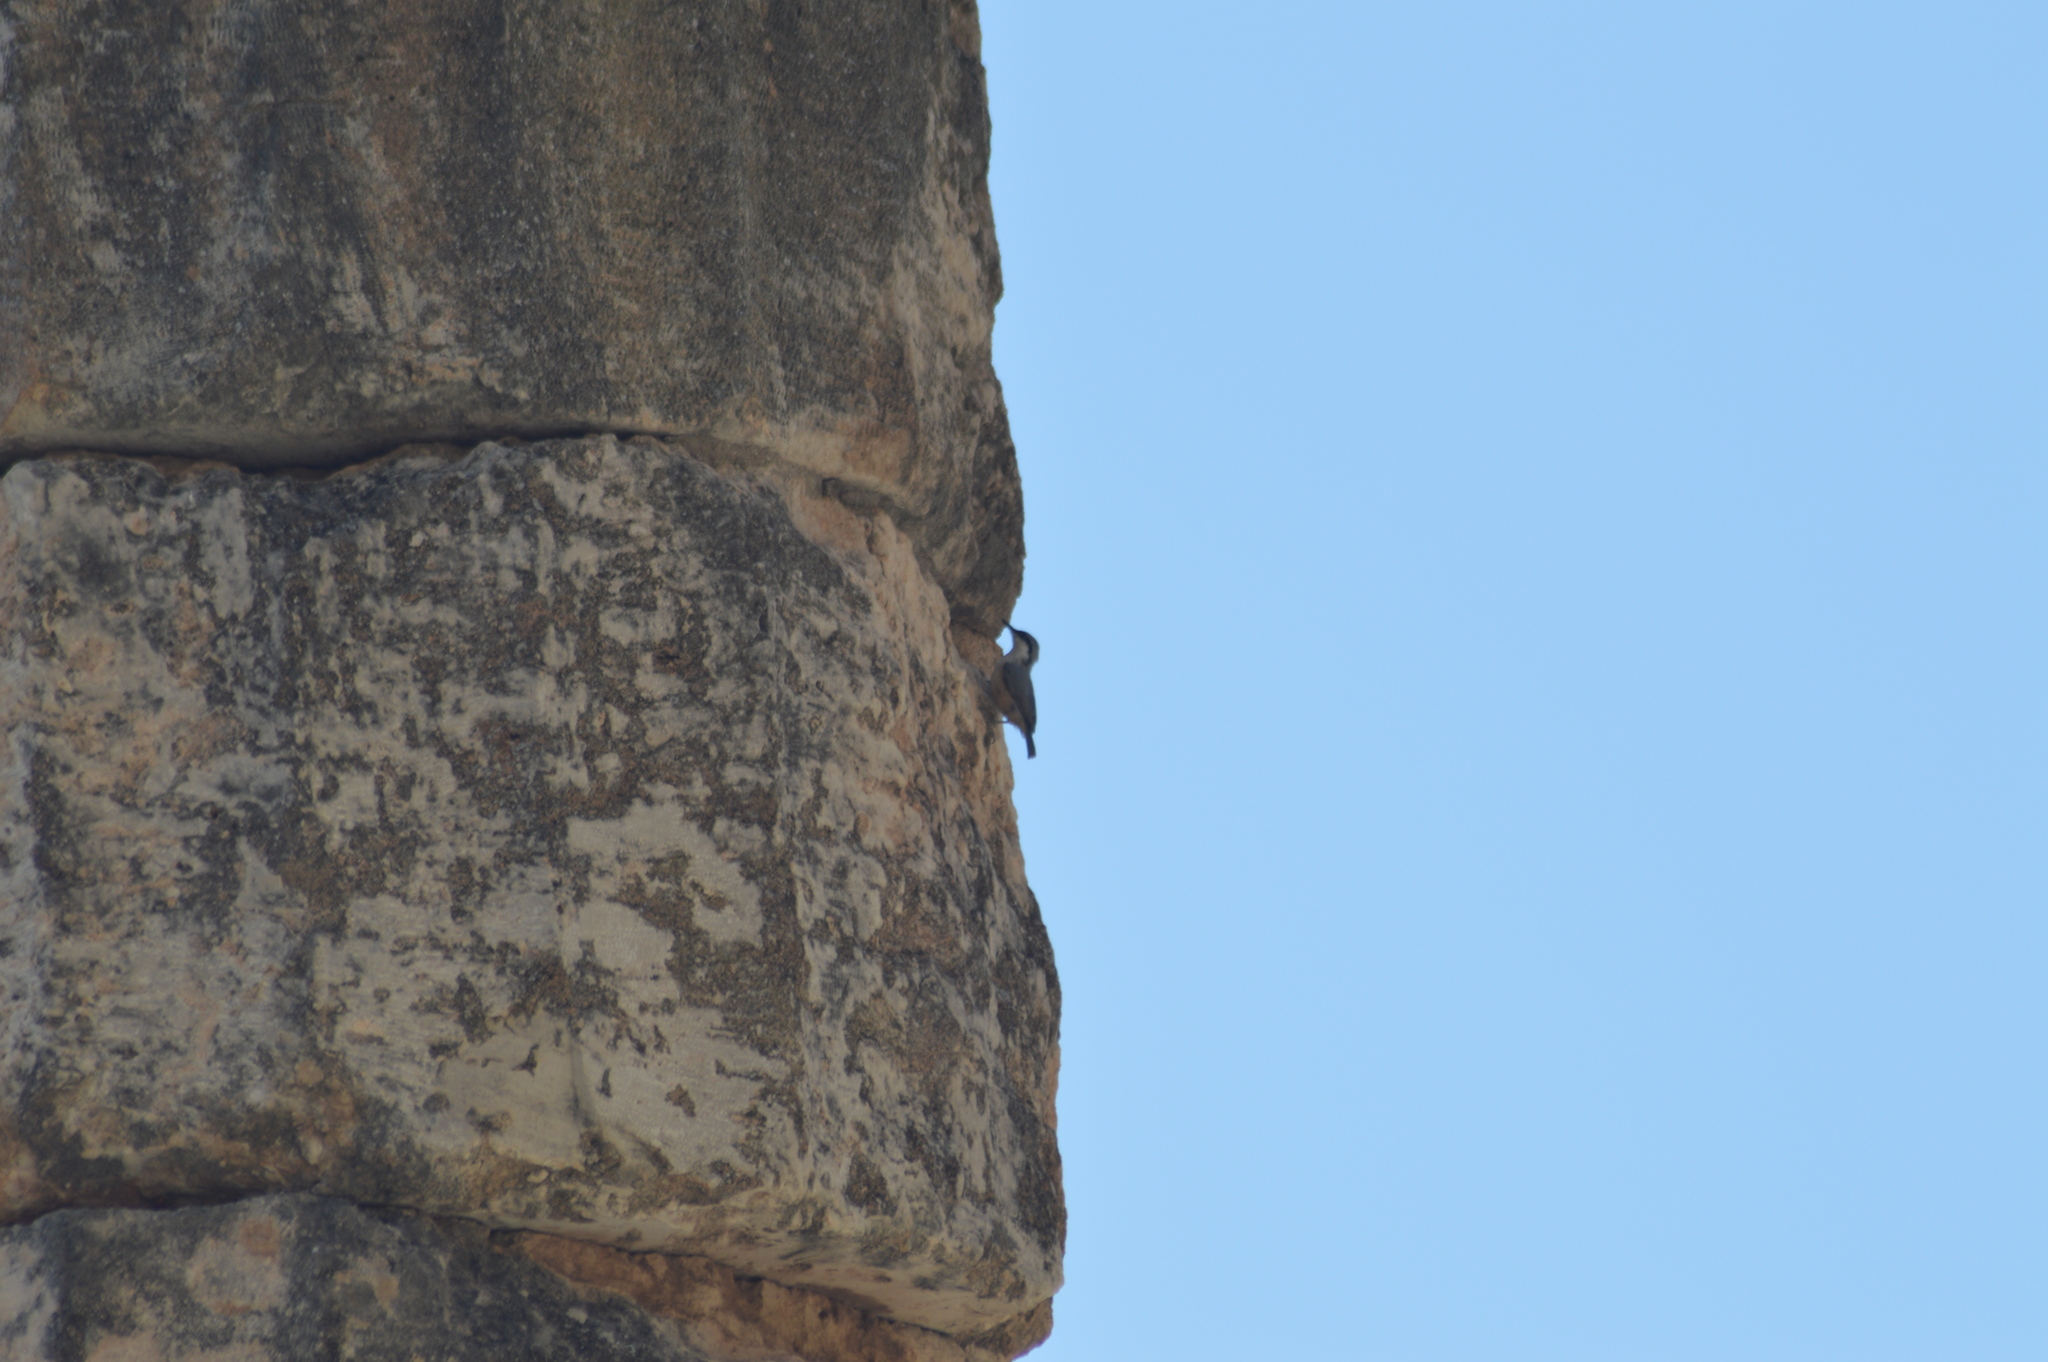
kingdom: Animalia
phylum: Chordata
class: Aves
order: Passeriformes
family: Sittidae
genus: Sitta
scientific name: Sitta neumayer
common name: Western rock nuthatch
